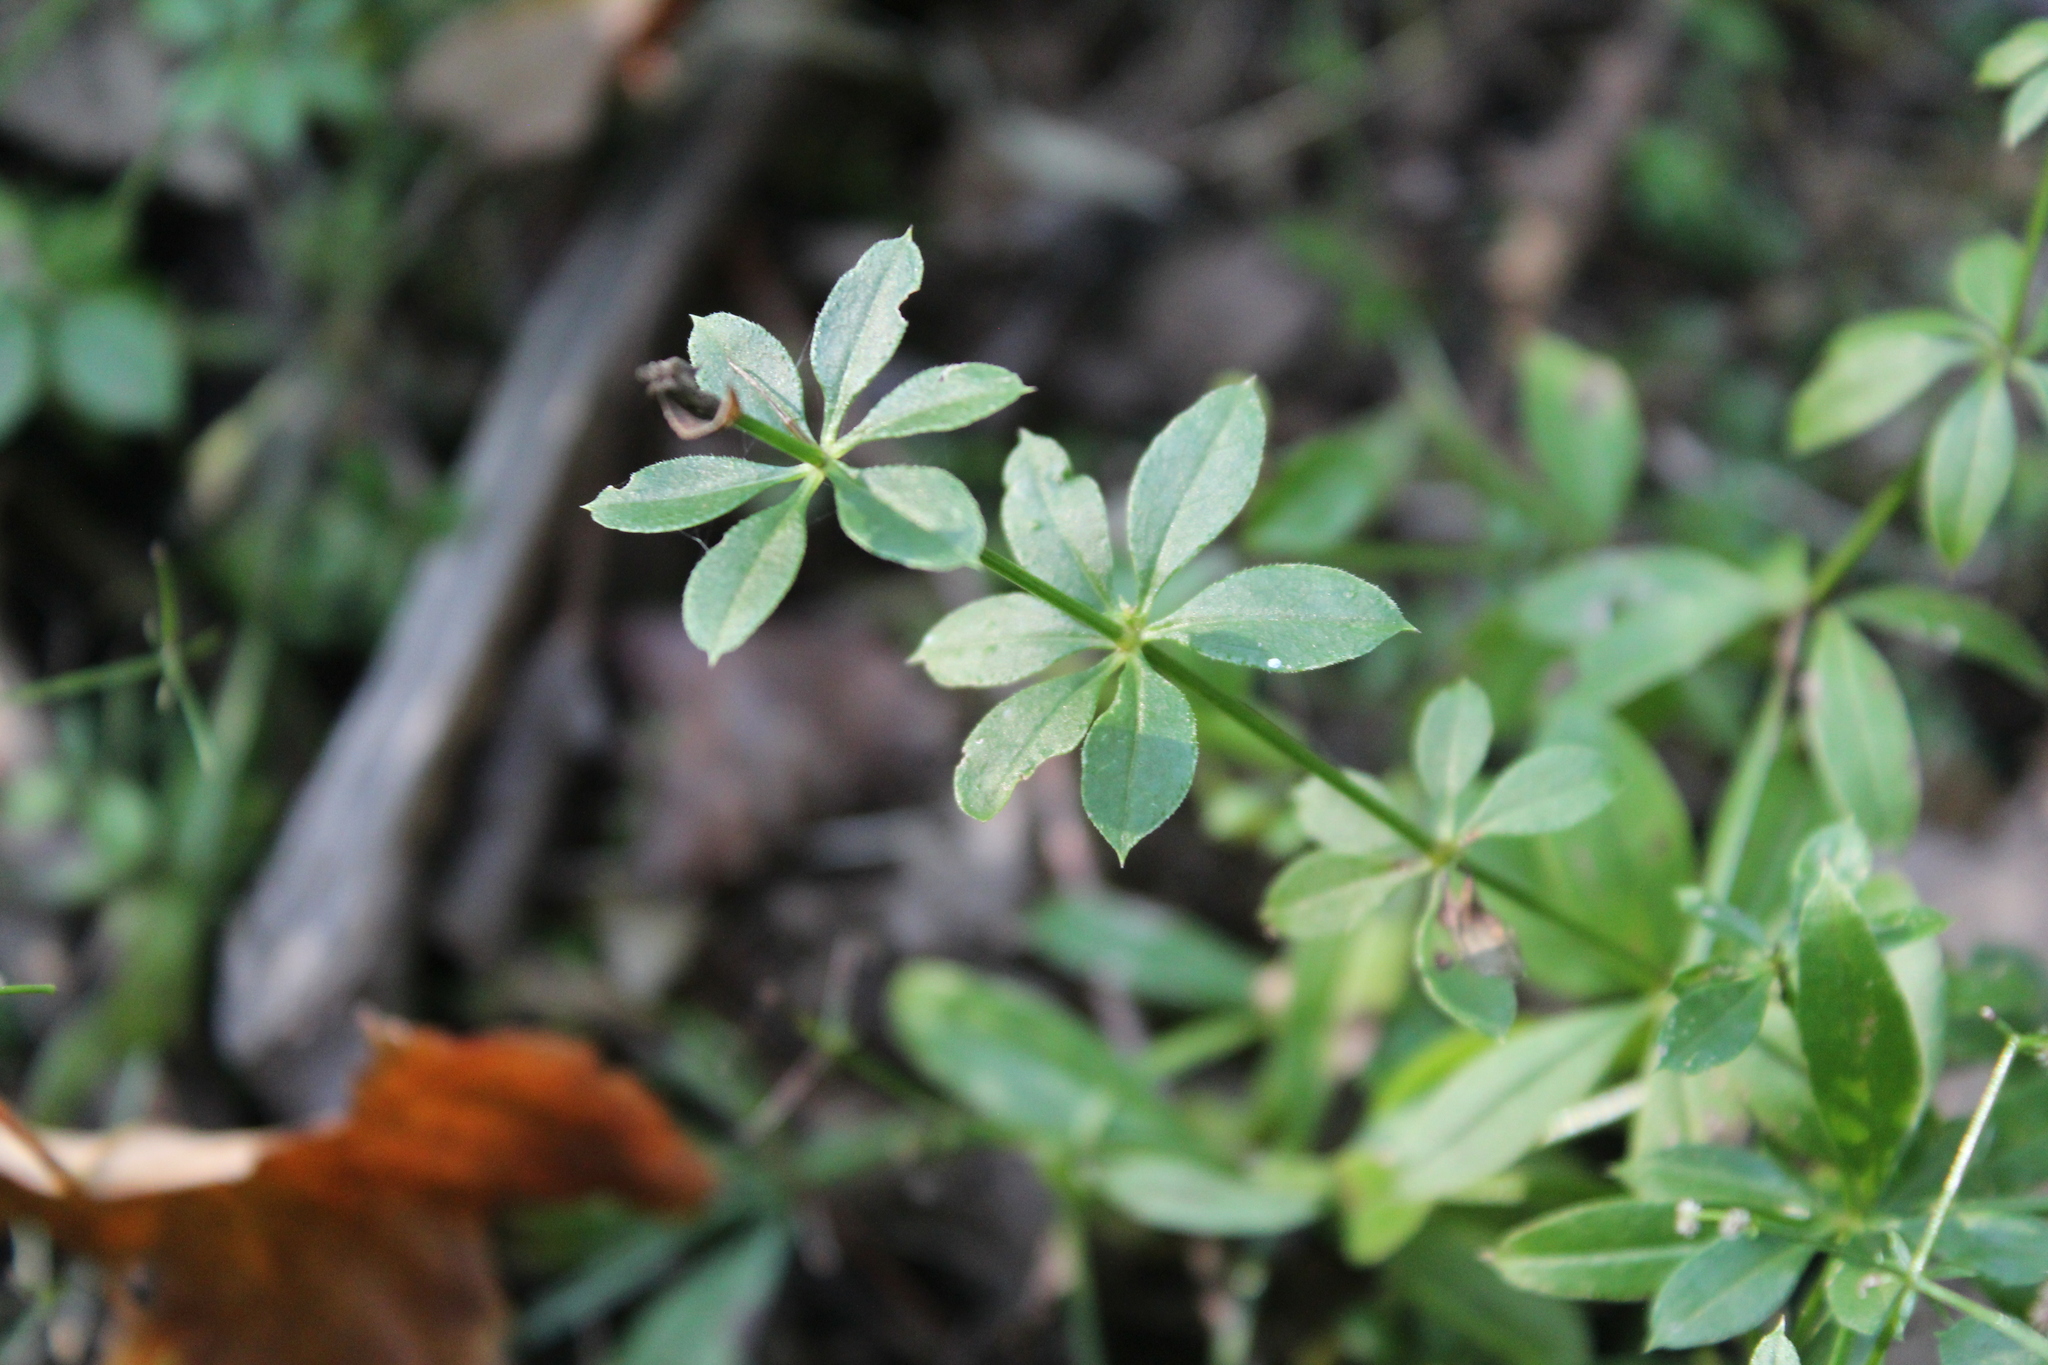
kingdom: Plantae
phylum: Tracheophyta
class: Magnoliopsida
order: Gentianales
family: Rubiaceae
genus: Galium
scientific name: Galium triflorum
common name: Fragrant bedstraw
